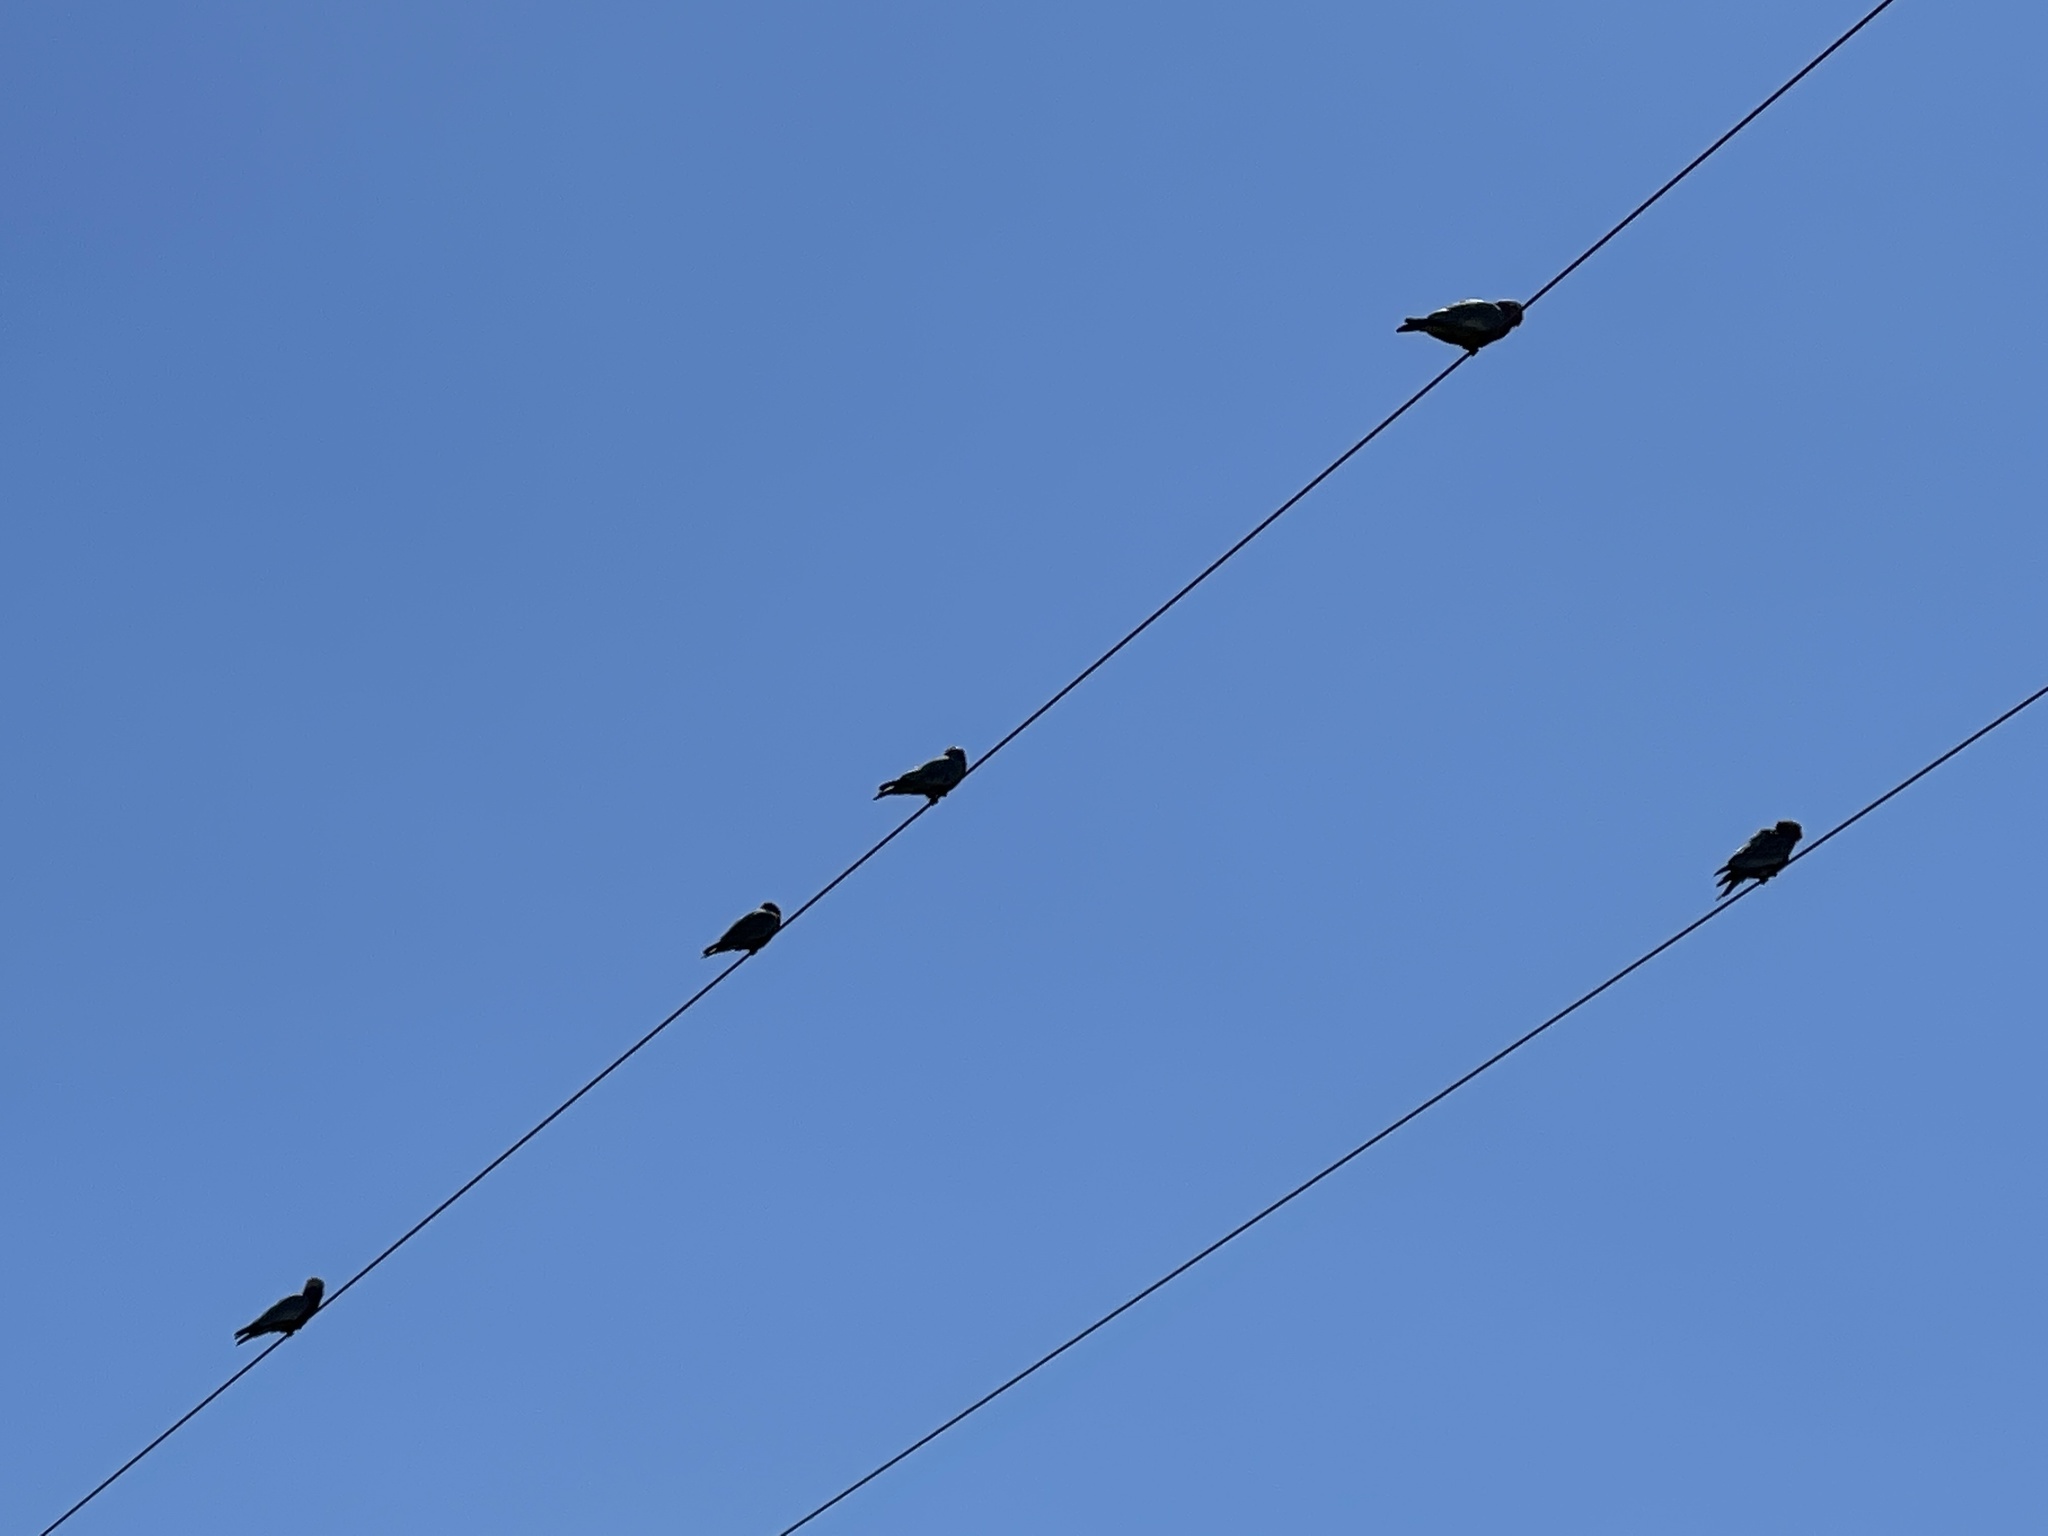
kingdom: Animalia
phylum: Chordata
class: Aves
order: Psittaciformes
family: Psittacidae
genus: Eolophus
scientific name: Eolophus roseicapilla
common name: Galah
